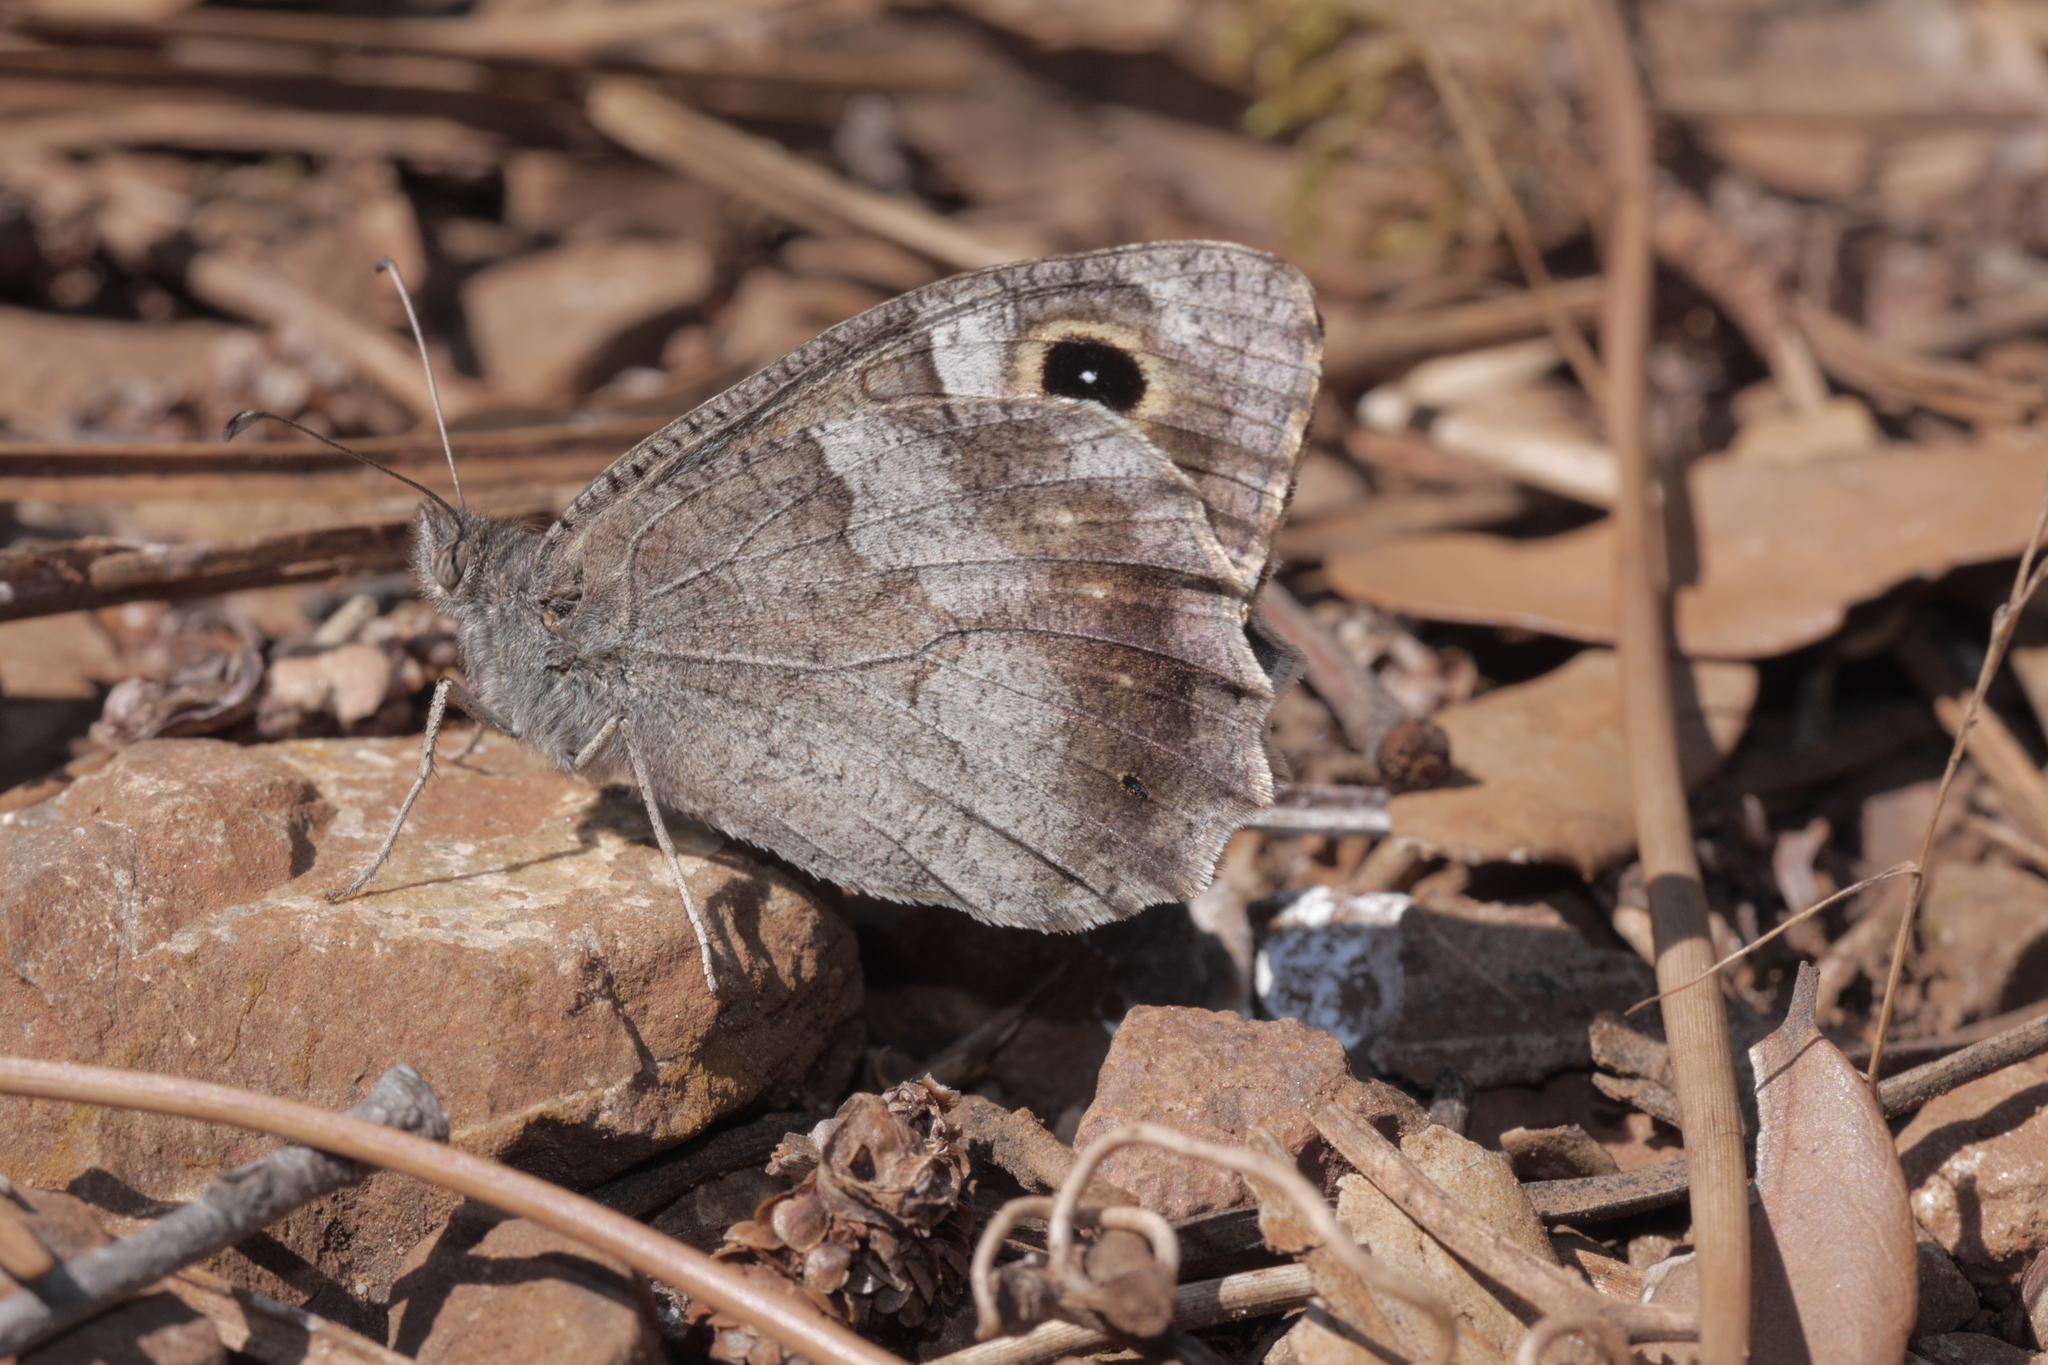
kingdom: Animalia
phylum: Arthropoda
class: Insecta
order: Lepidoptera
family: Nymphalidae
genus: Hipparchia
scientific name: Hipparchia statilinus
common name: Tree grayling
